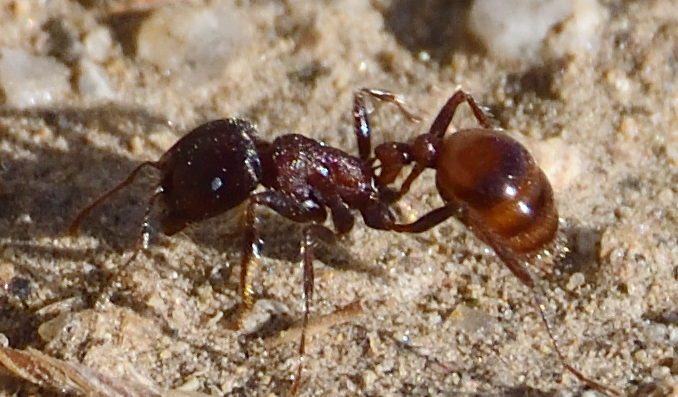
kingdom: Animalia
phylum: Arthropoda
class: Insecta
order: Hymenoptera
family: Formicidae
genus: Pogonomyrmex
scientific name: Pogonomyrmex rugosus
